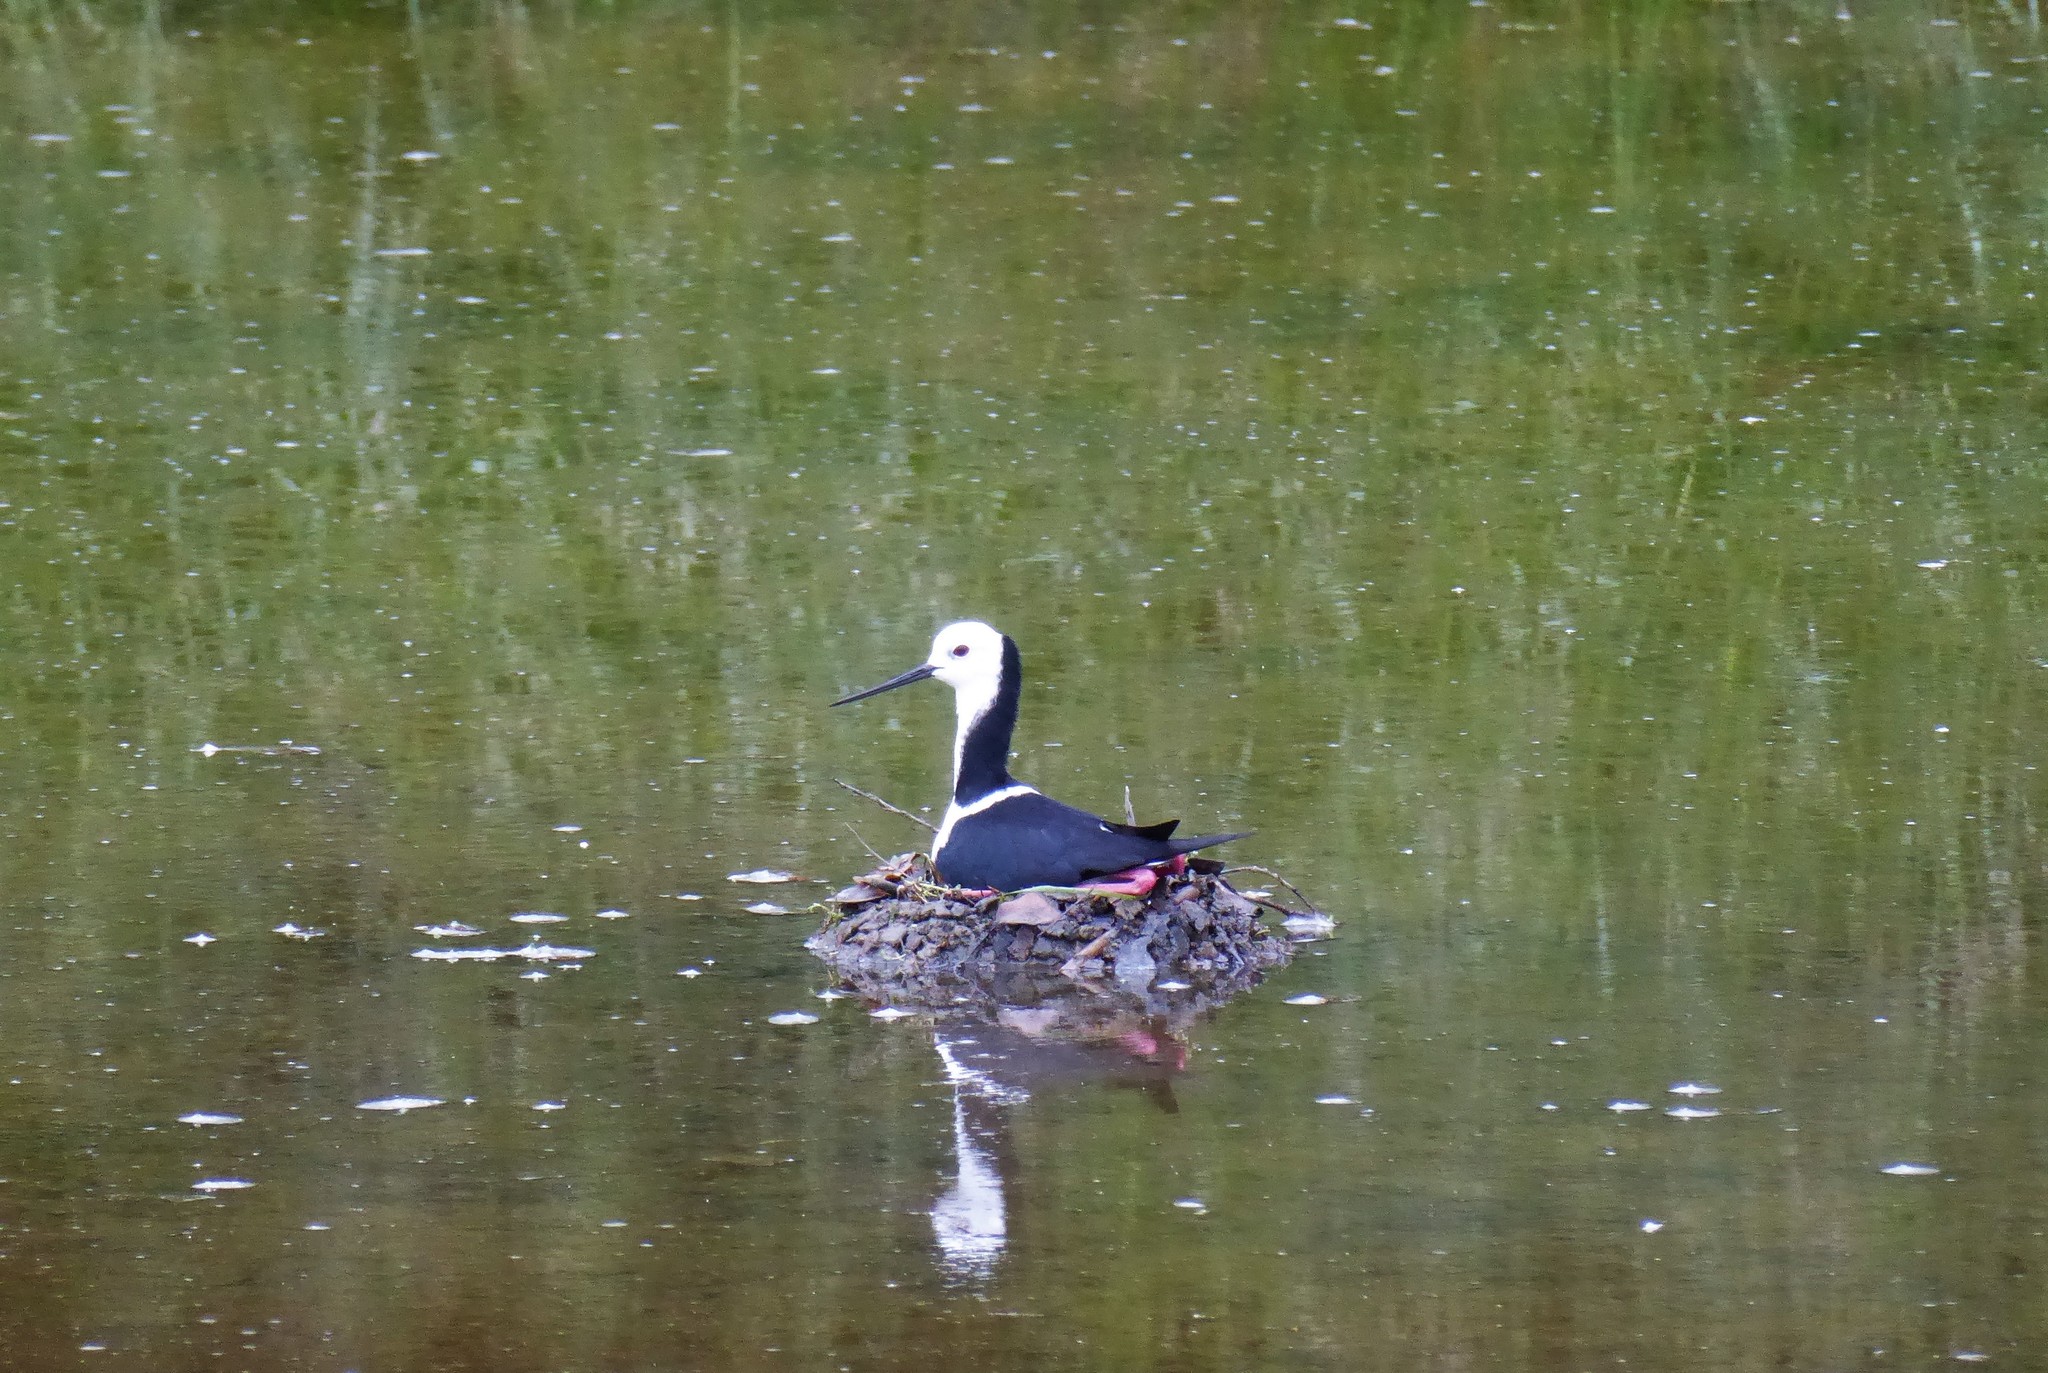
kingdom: Animalia
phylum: Chordata
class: Aves
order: Charadriiformes
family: Recurvirostridae
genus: Himantopus
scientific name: Himantopus leucocephalus
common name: White-headed stilt
